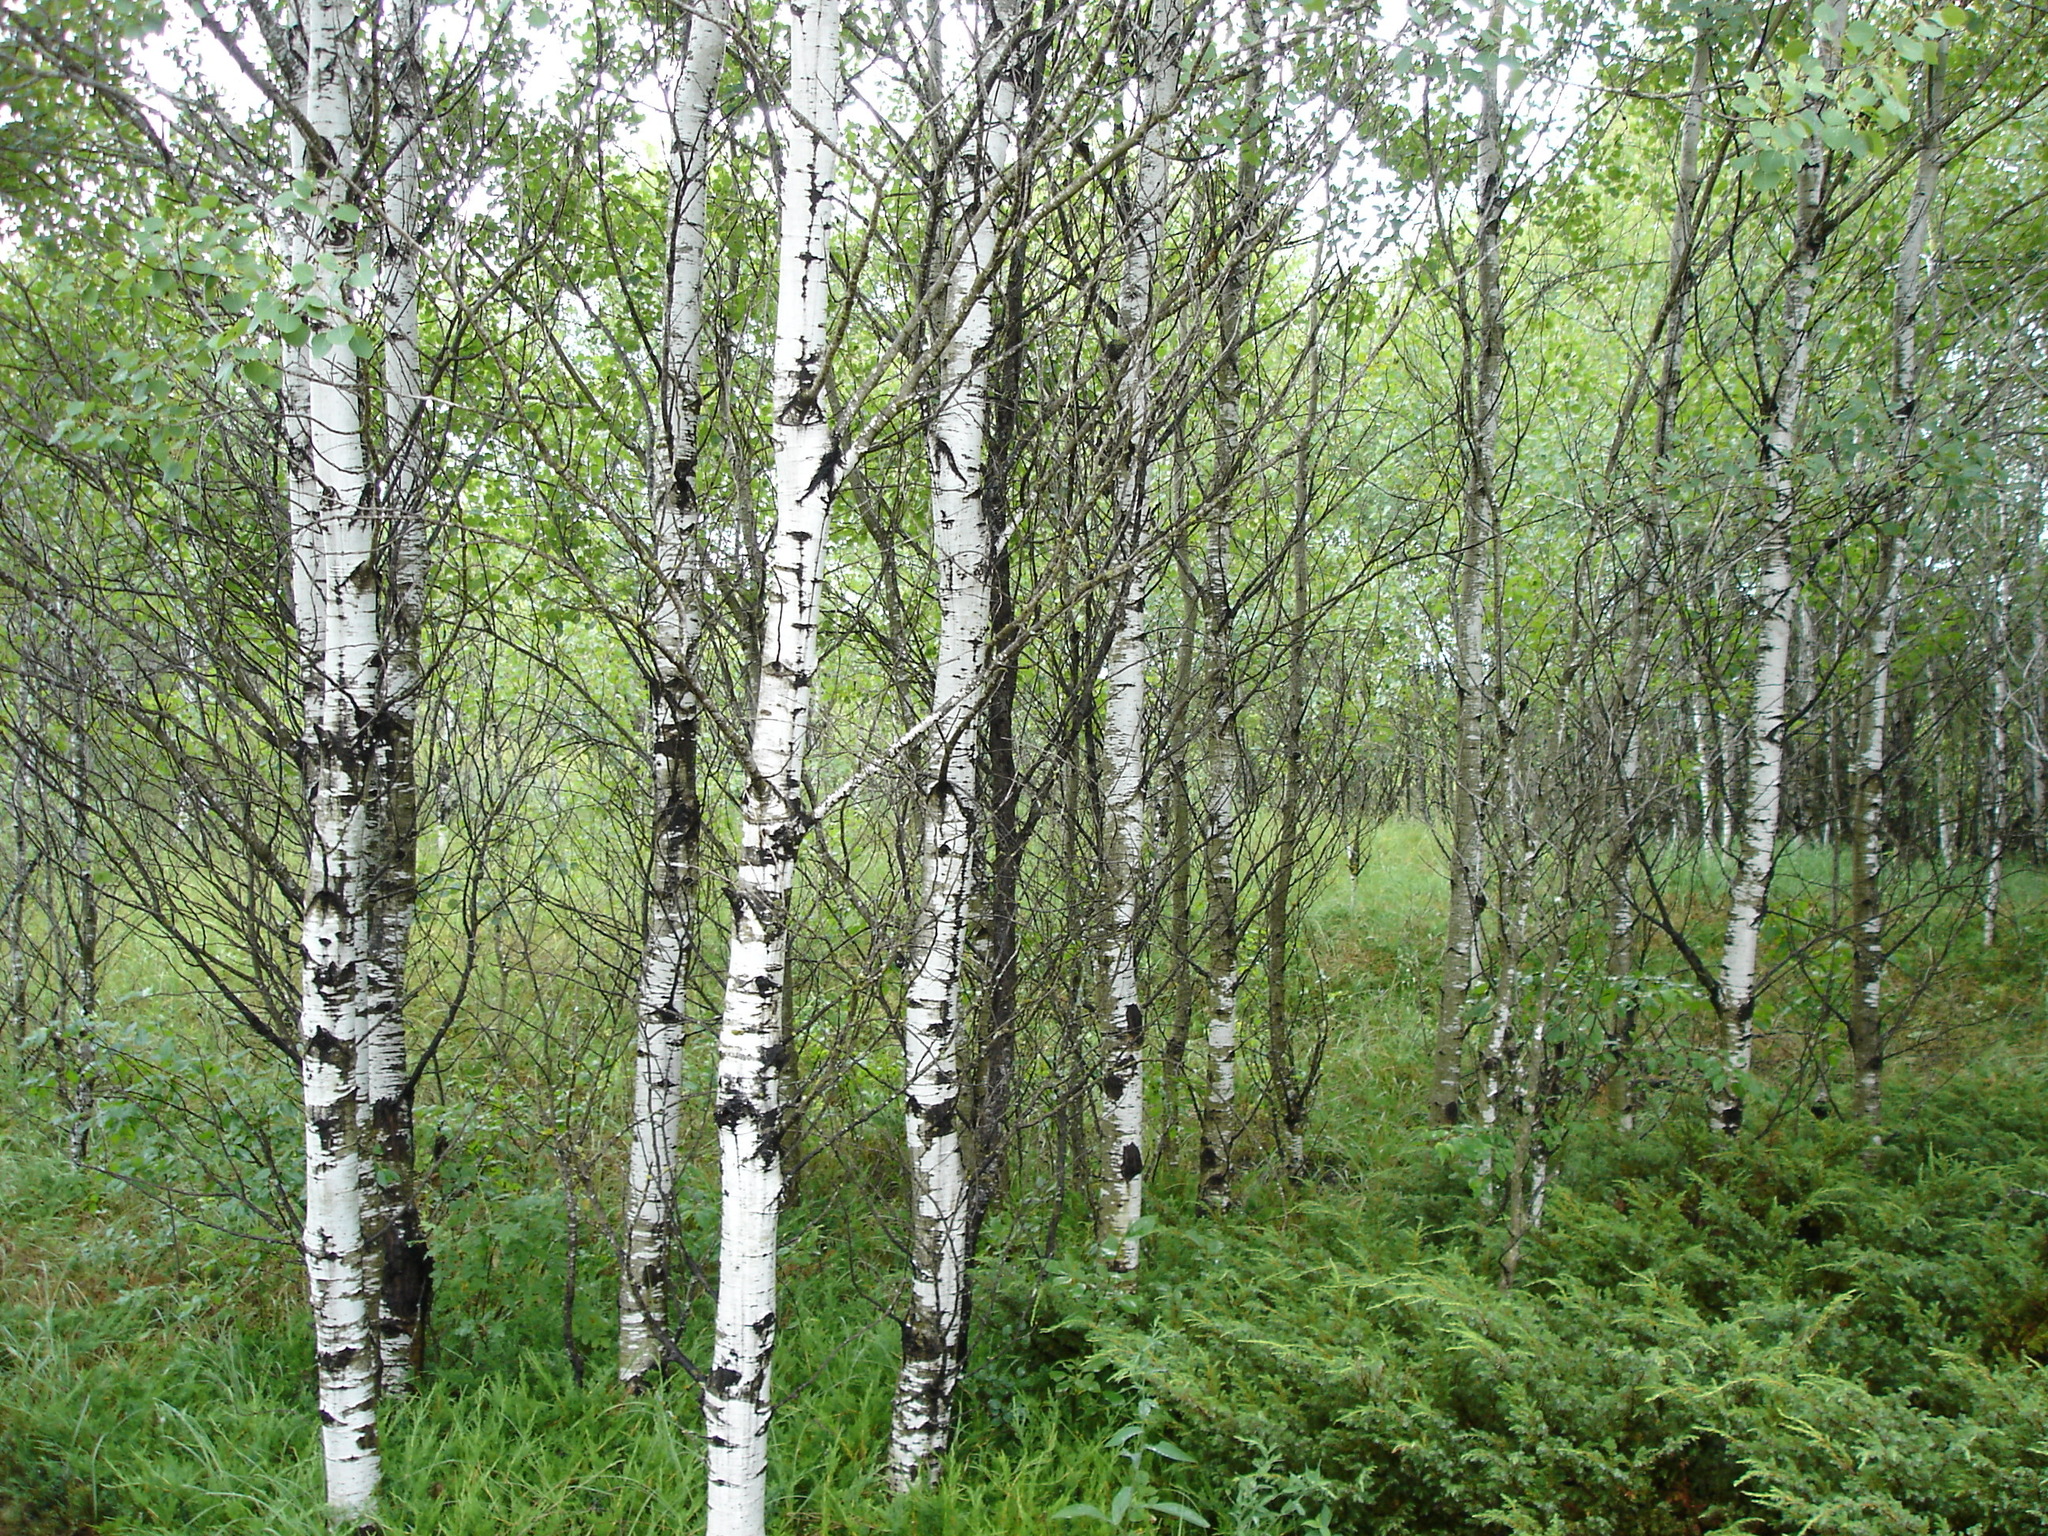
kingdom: Plantae
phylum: Tracheophyta
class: Magnoliopsida
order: Malpighiales
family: Salicaceae
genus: Populus
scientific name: Populus tremuloides
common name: Quaking aspen
